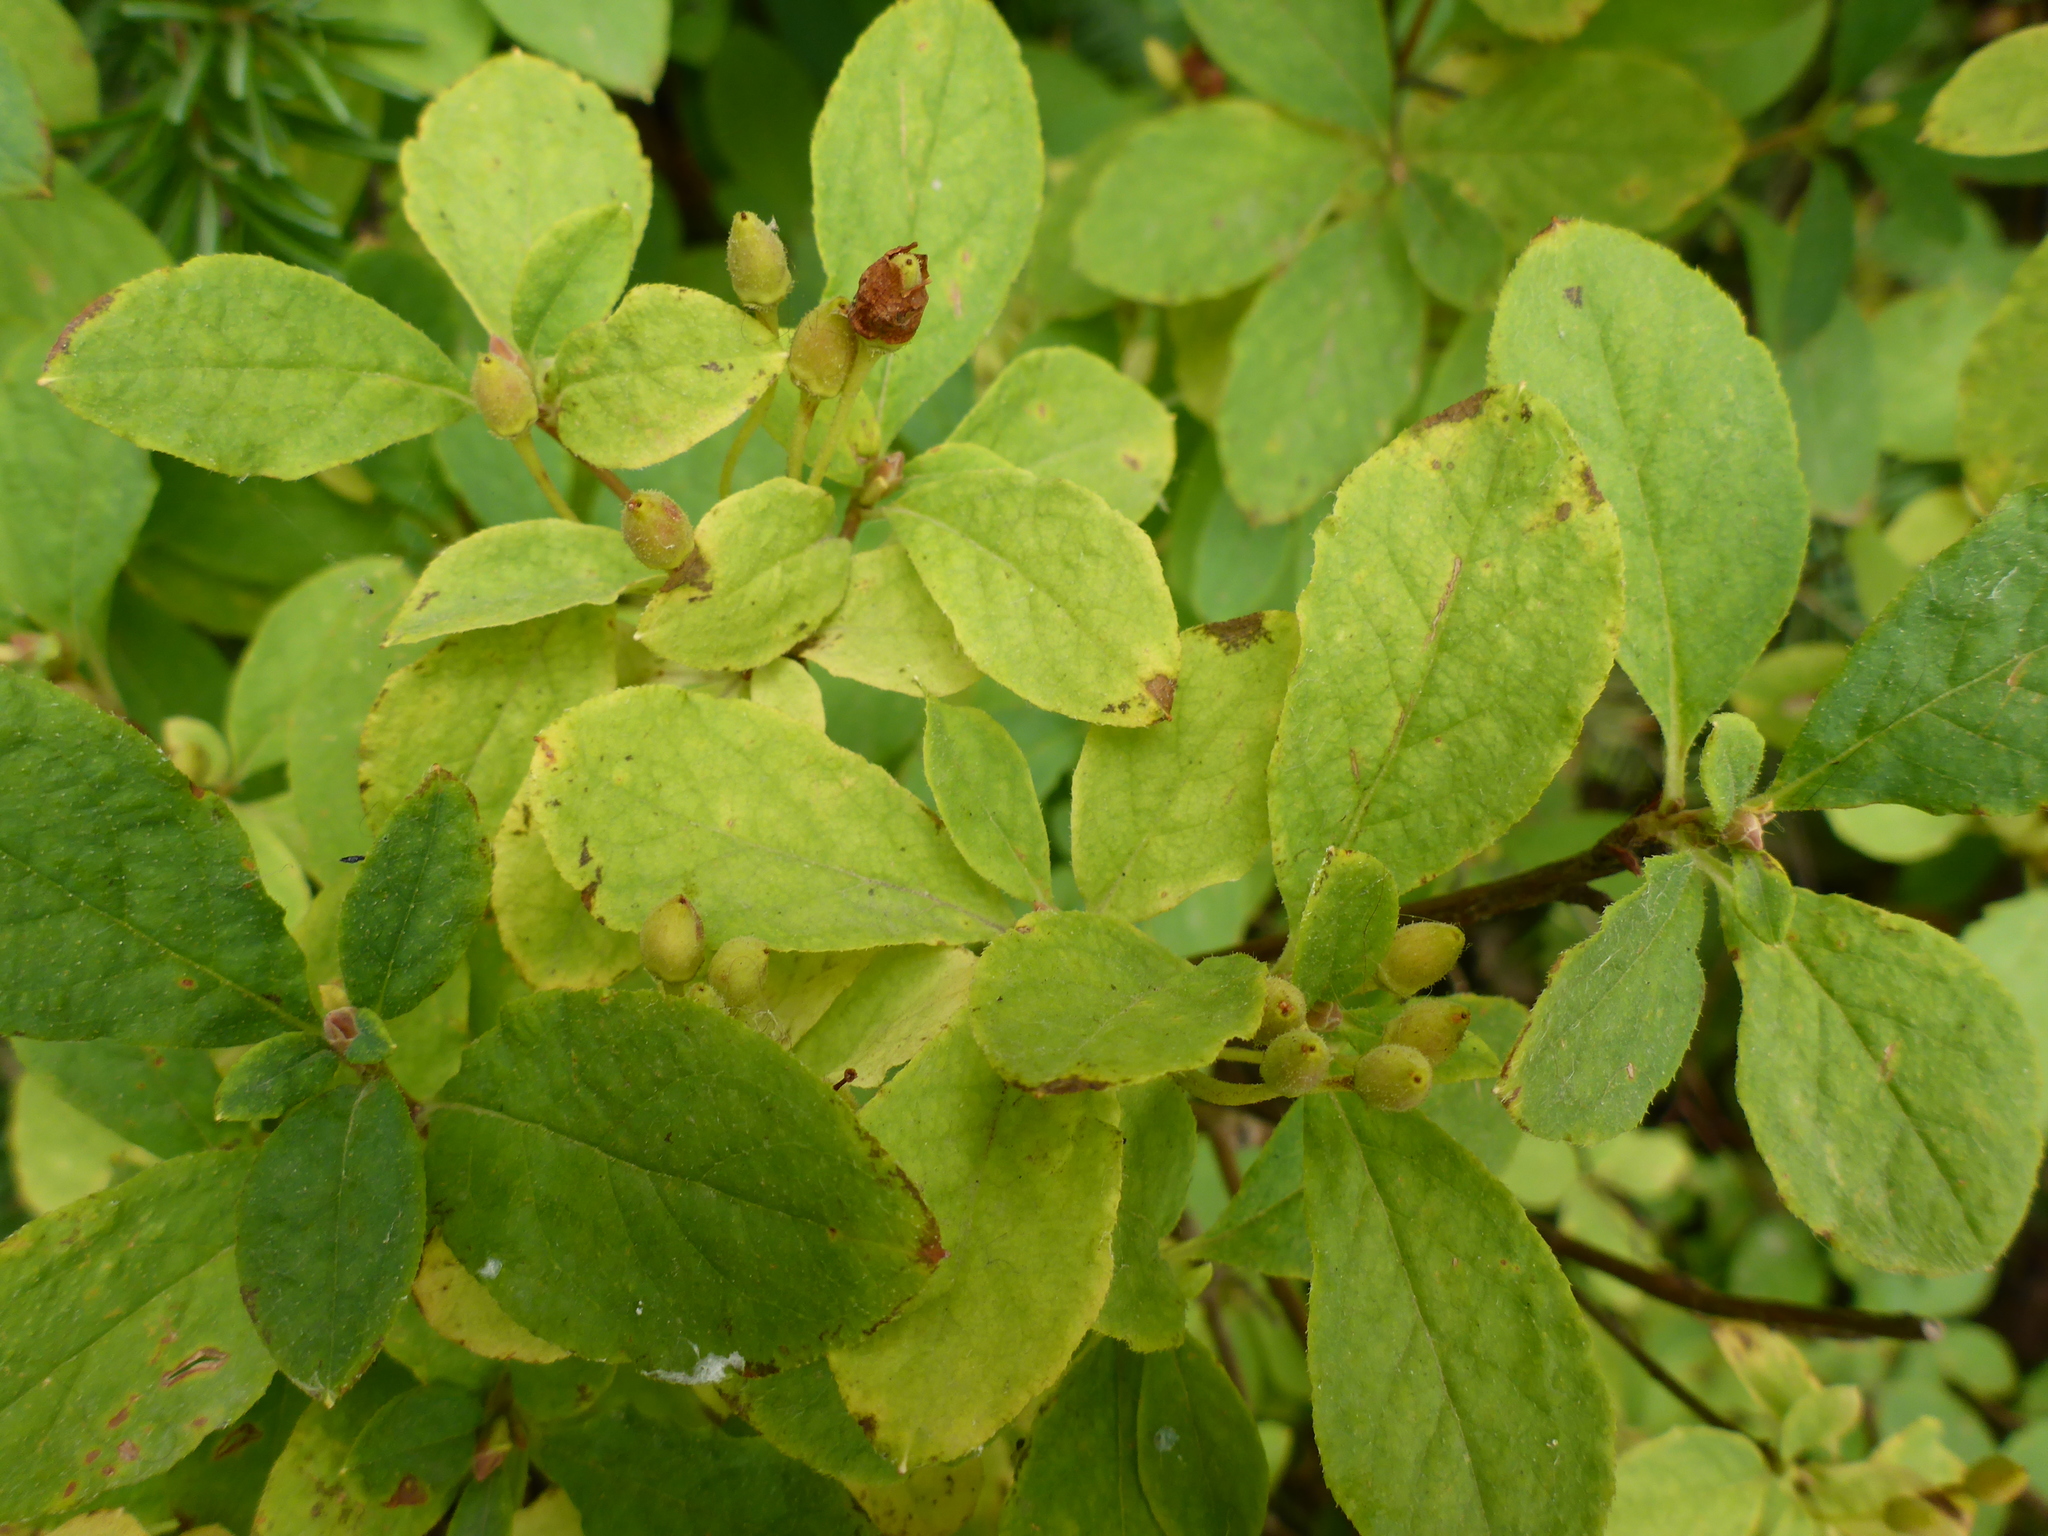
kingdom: Plantae
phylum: Tracheophyta
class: Magnoliopsida
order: Ericales
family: Ericaceae
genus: Rhododendron
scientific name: Rhododendron menziesii
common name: Pacific menziesia
